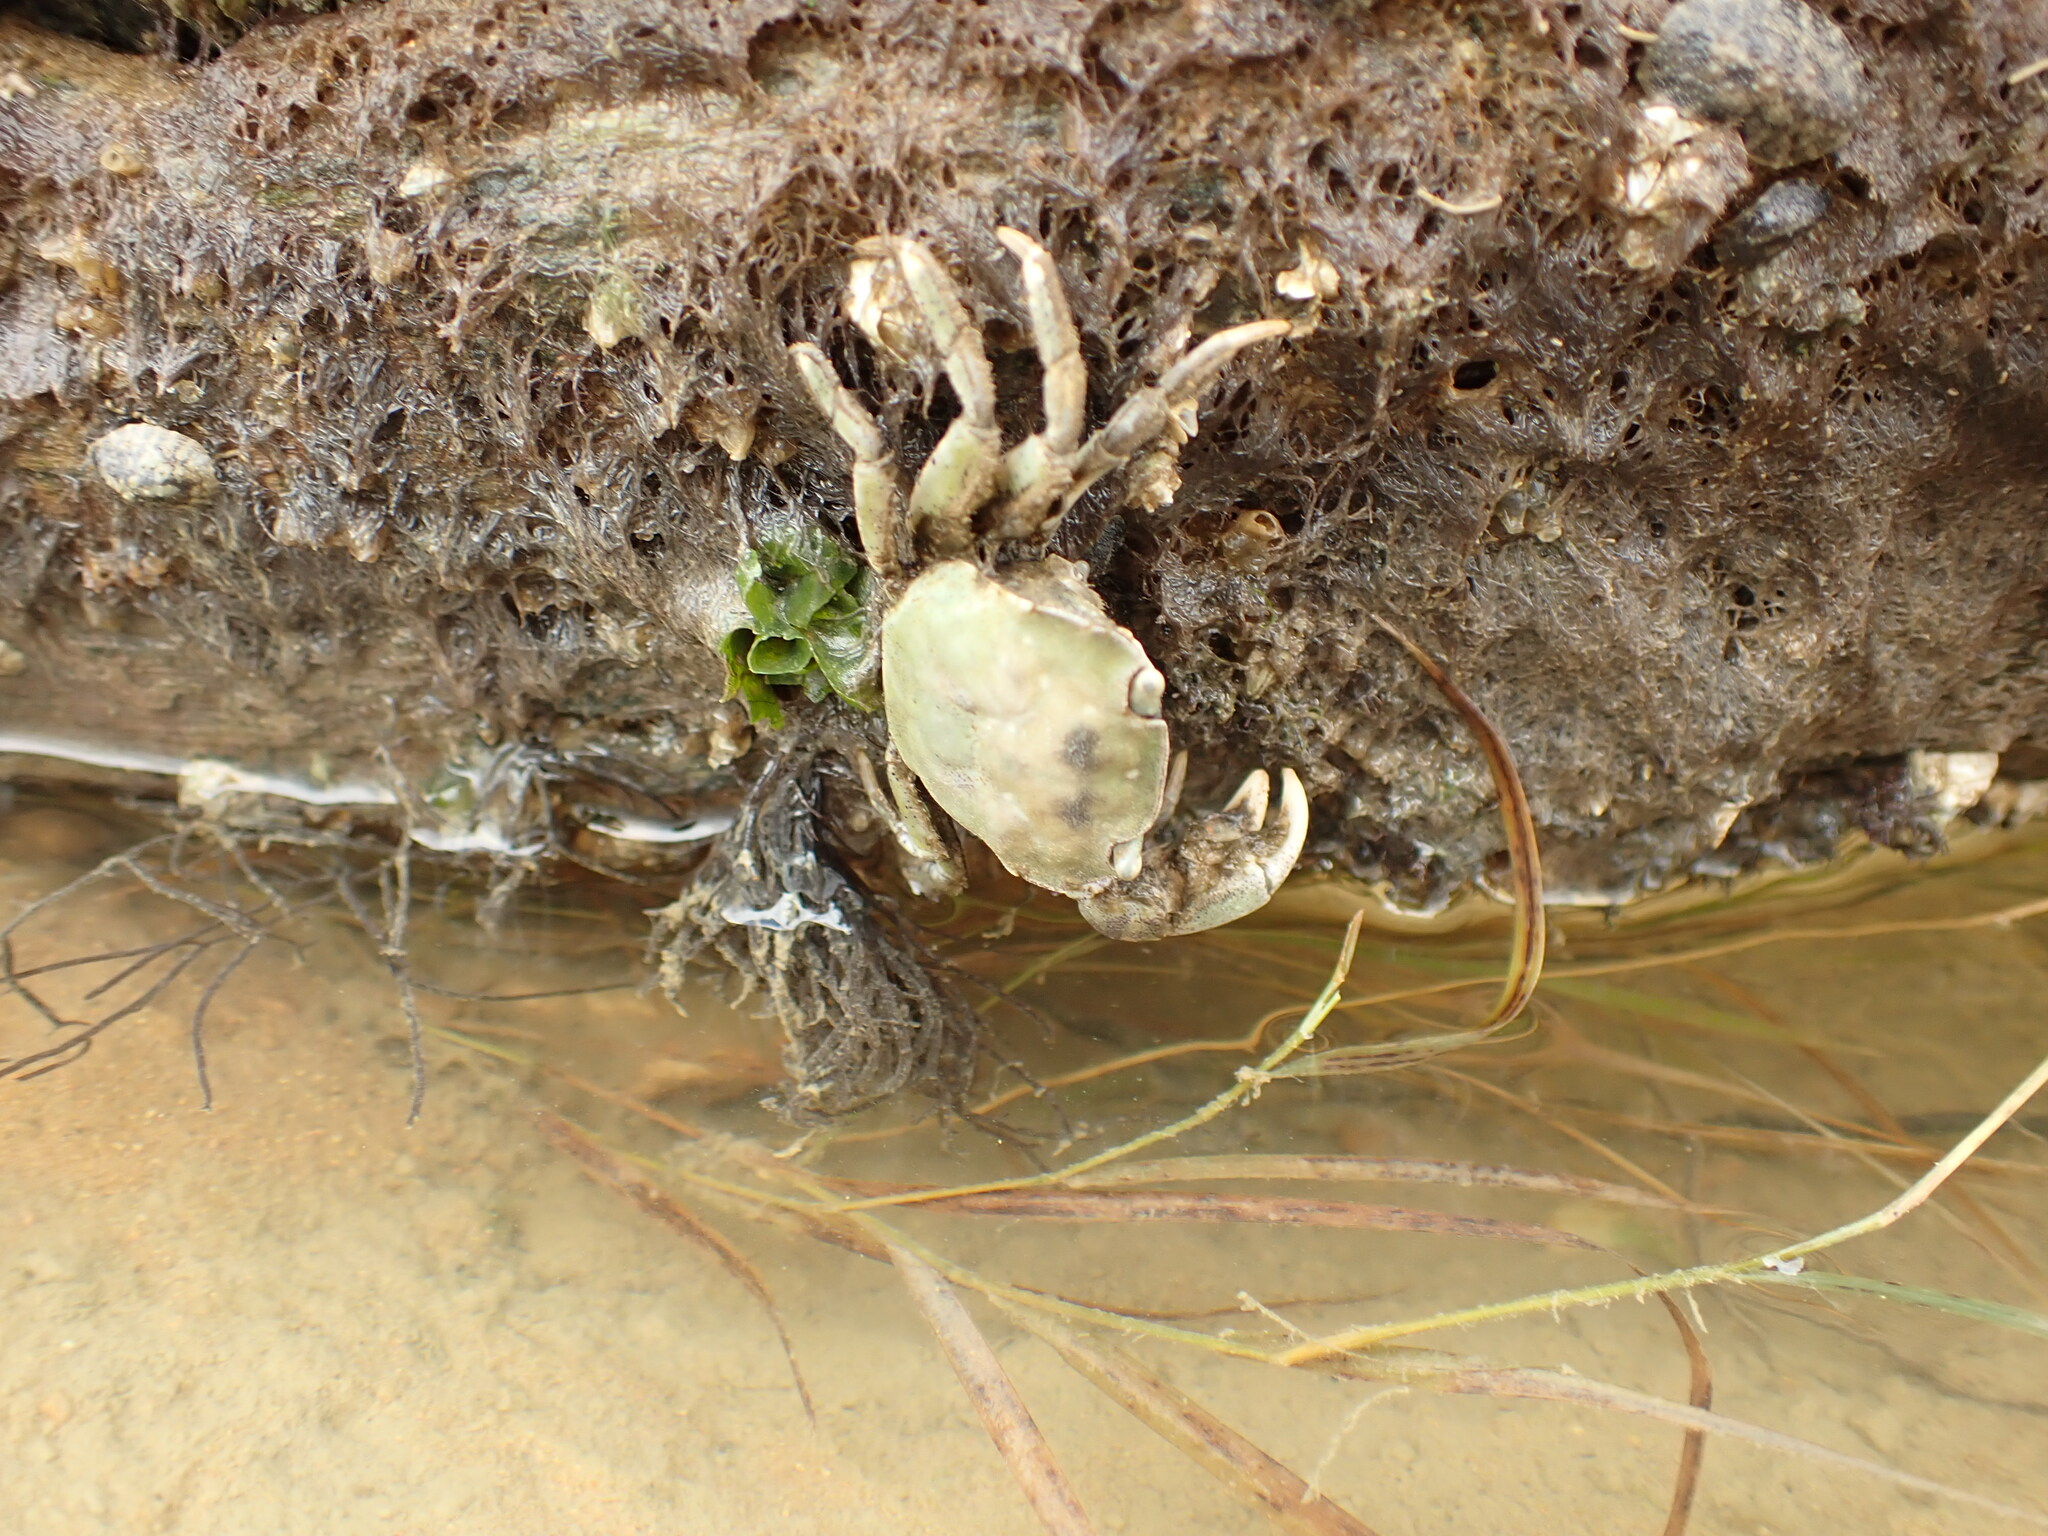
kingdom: Animalia
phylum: Arthropoda
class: Malacostraca
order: Decapoda
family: Varunidae
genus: Hemigrapsus
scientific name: Hemigrapsus crenulatus
